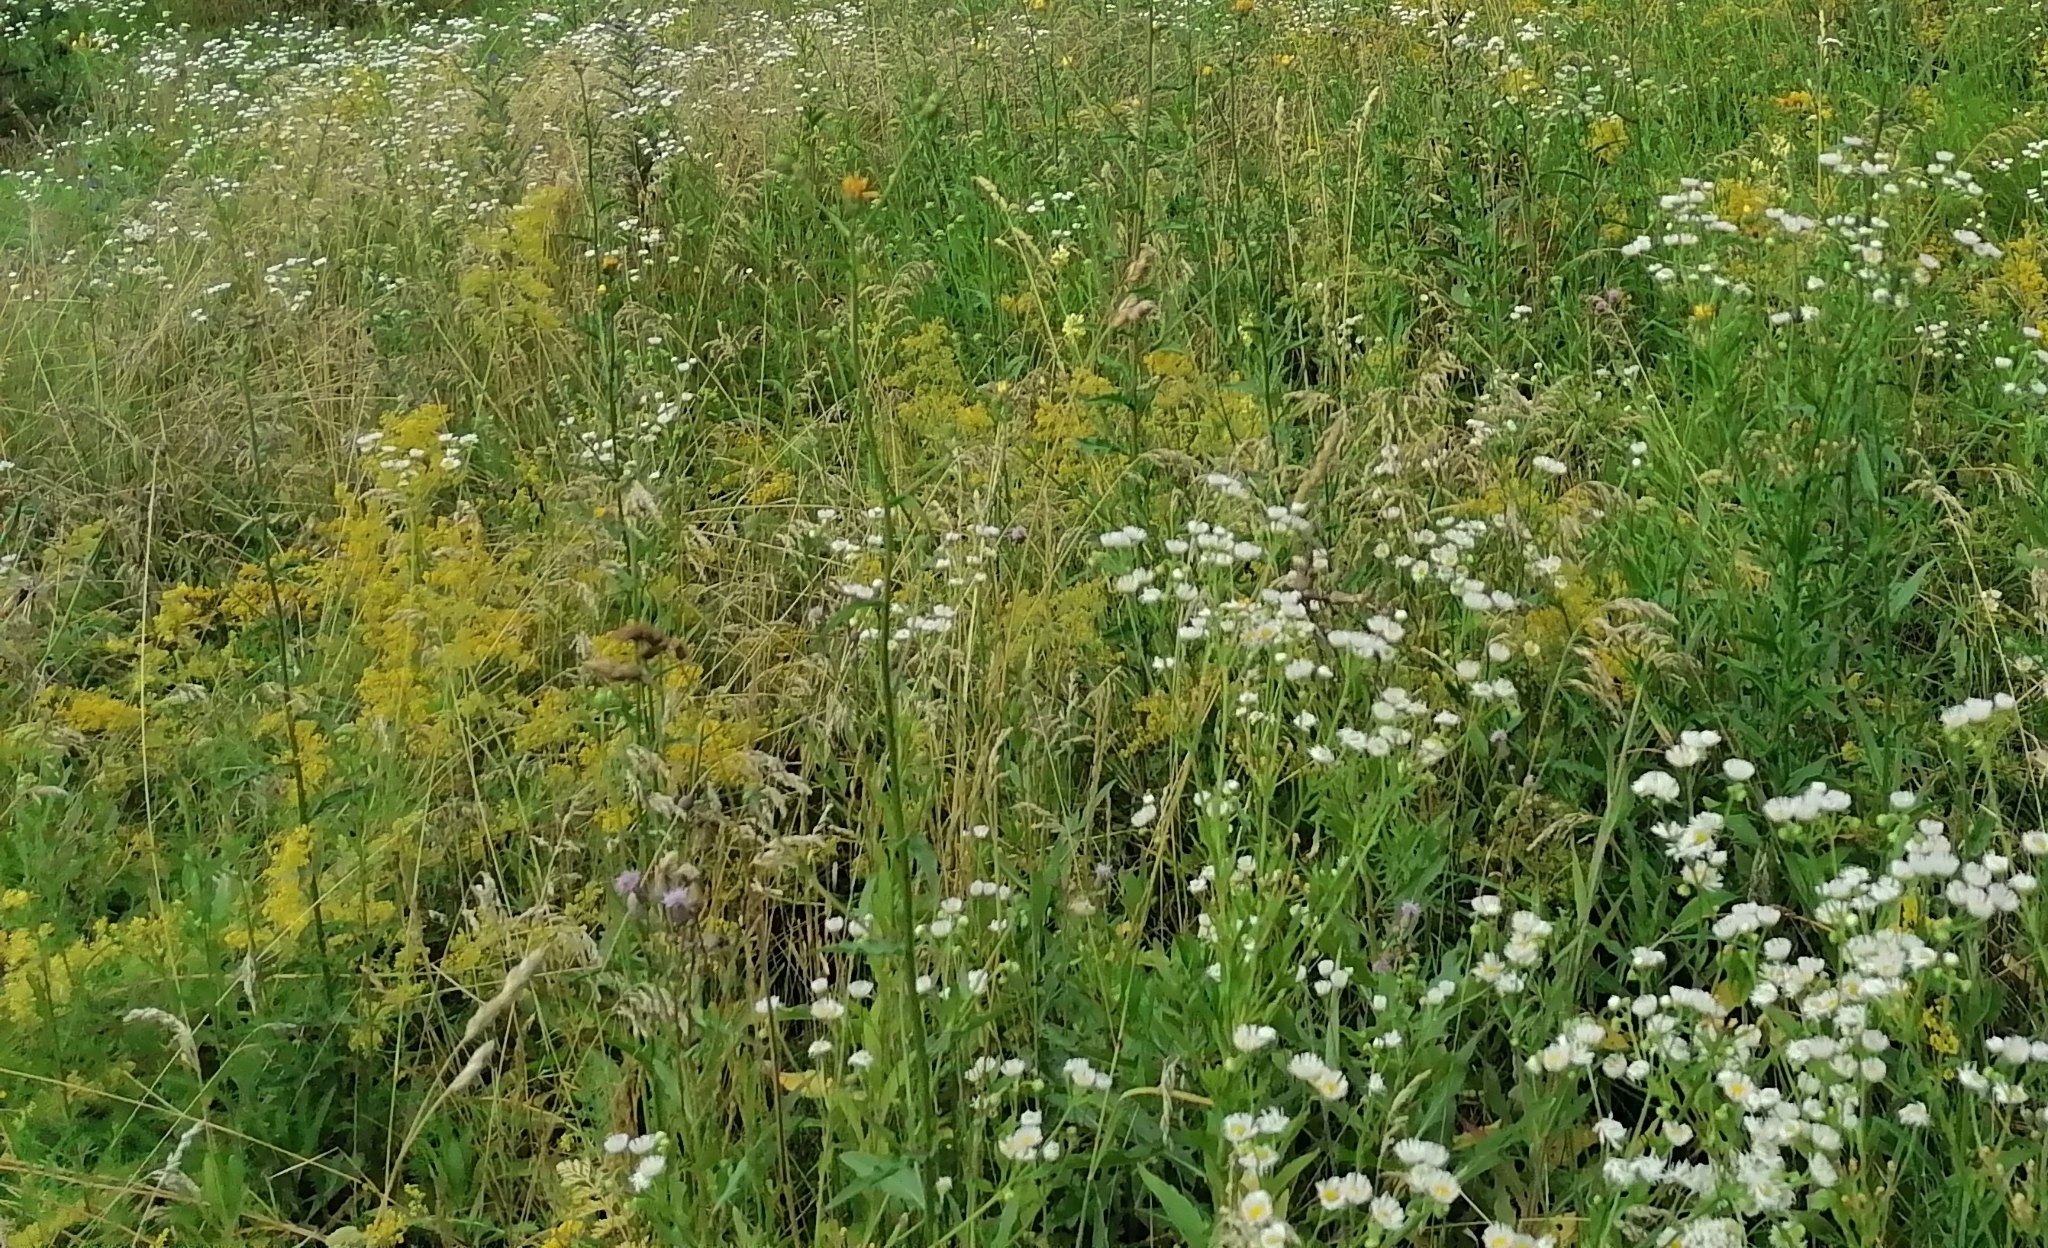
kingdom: Plantae
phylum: Tracheophyta
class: Magnoliopsida
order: Gentianales
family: Rubiaceae
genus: Galium
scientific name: Galium verum
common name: Lady's bedstraw
